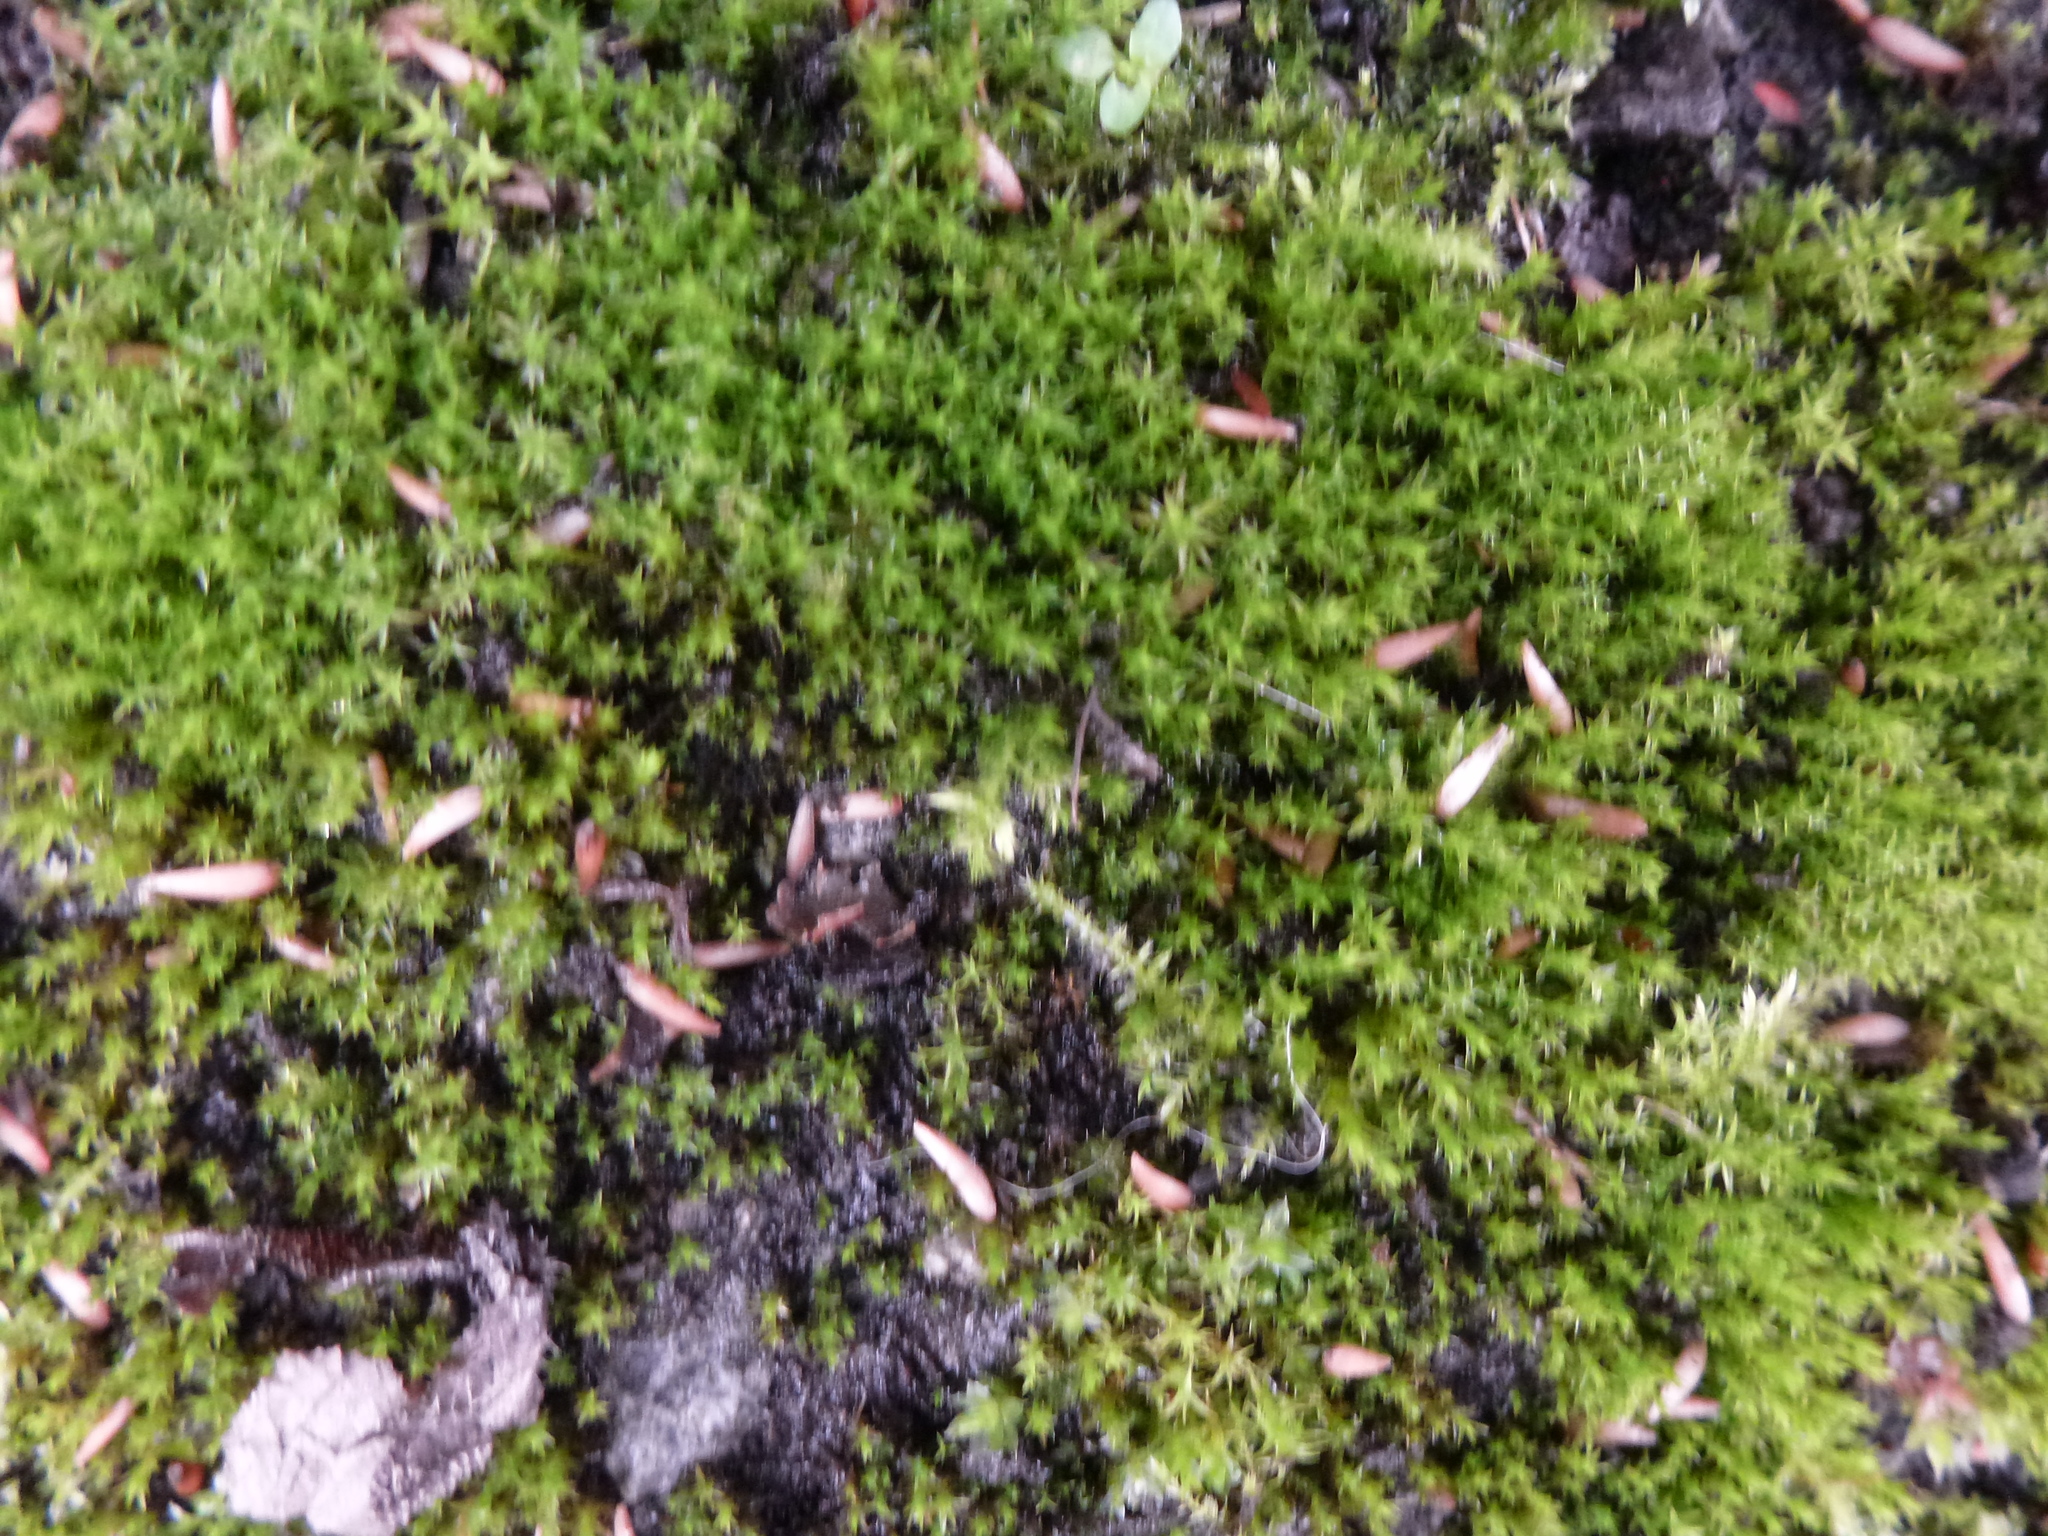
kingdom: Plantae
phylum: Bryophyta
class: Bryopsida
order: Pottiales
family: Pottiaceae
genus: Vinealobryum
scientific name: Vinealobryum nicholsonii
